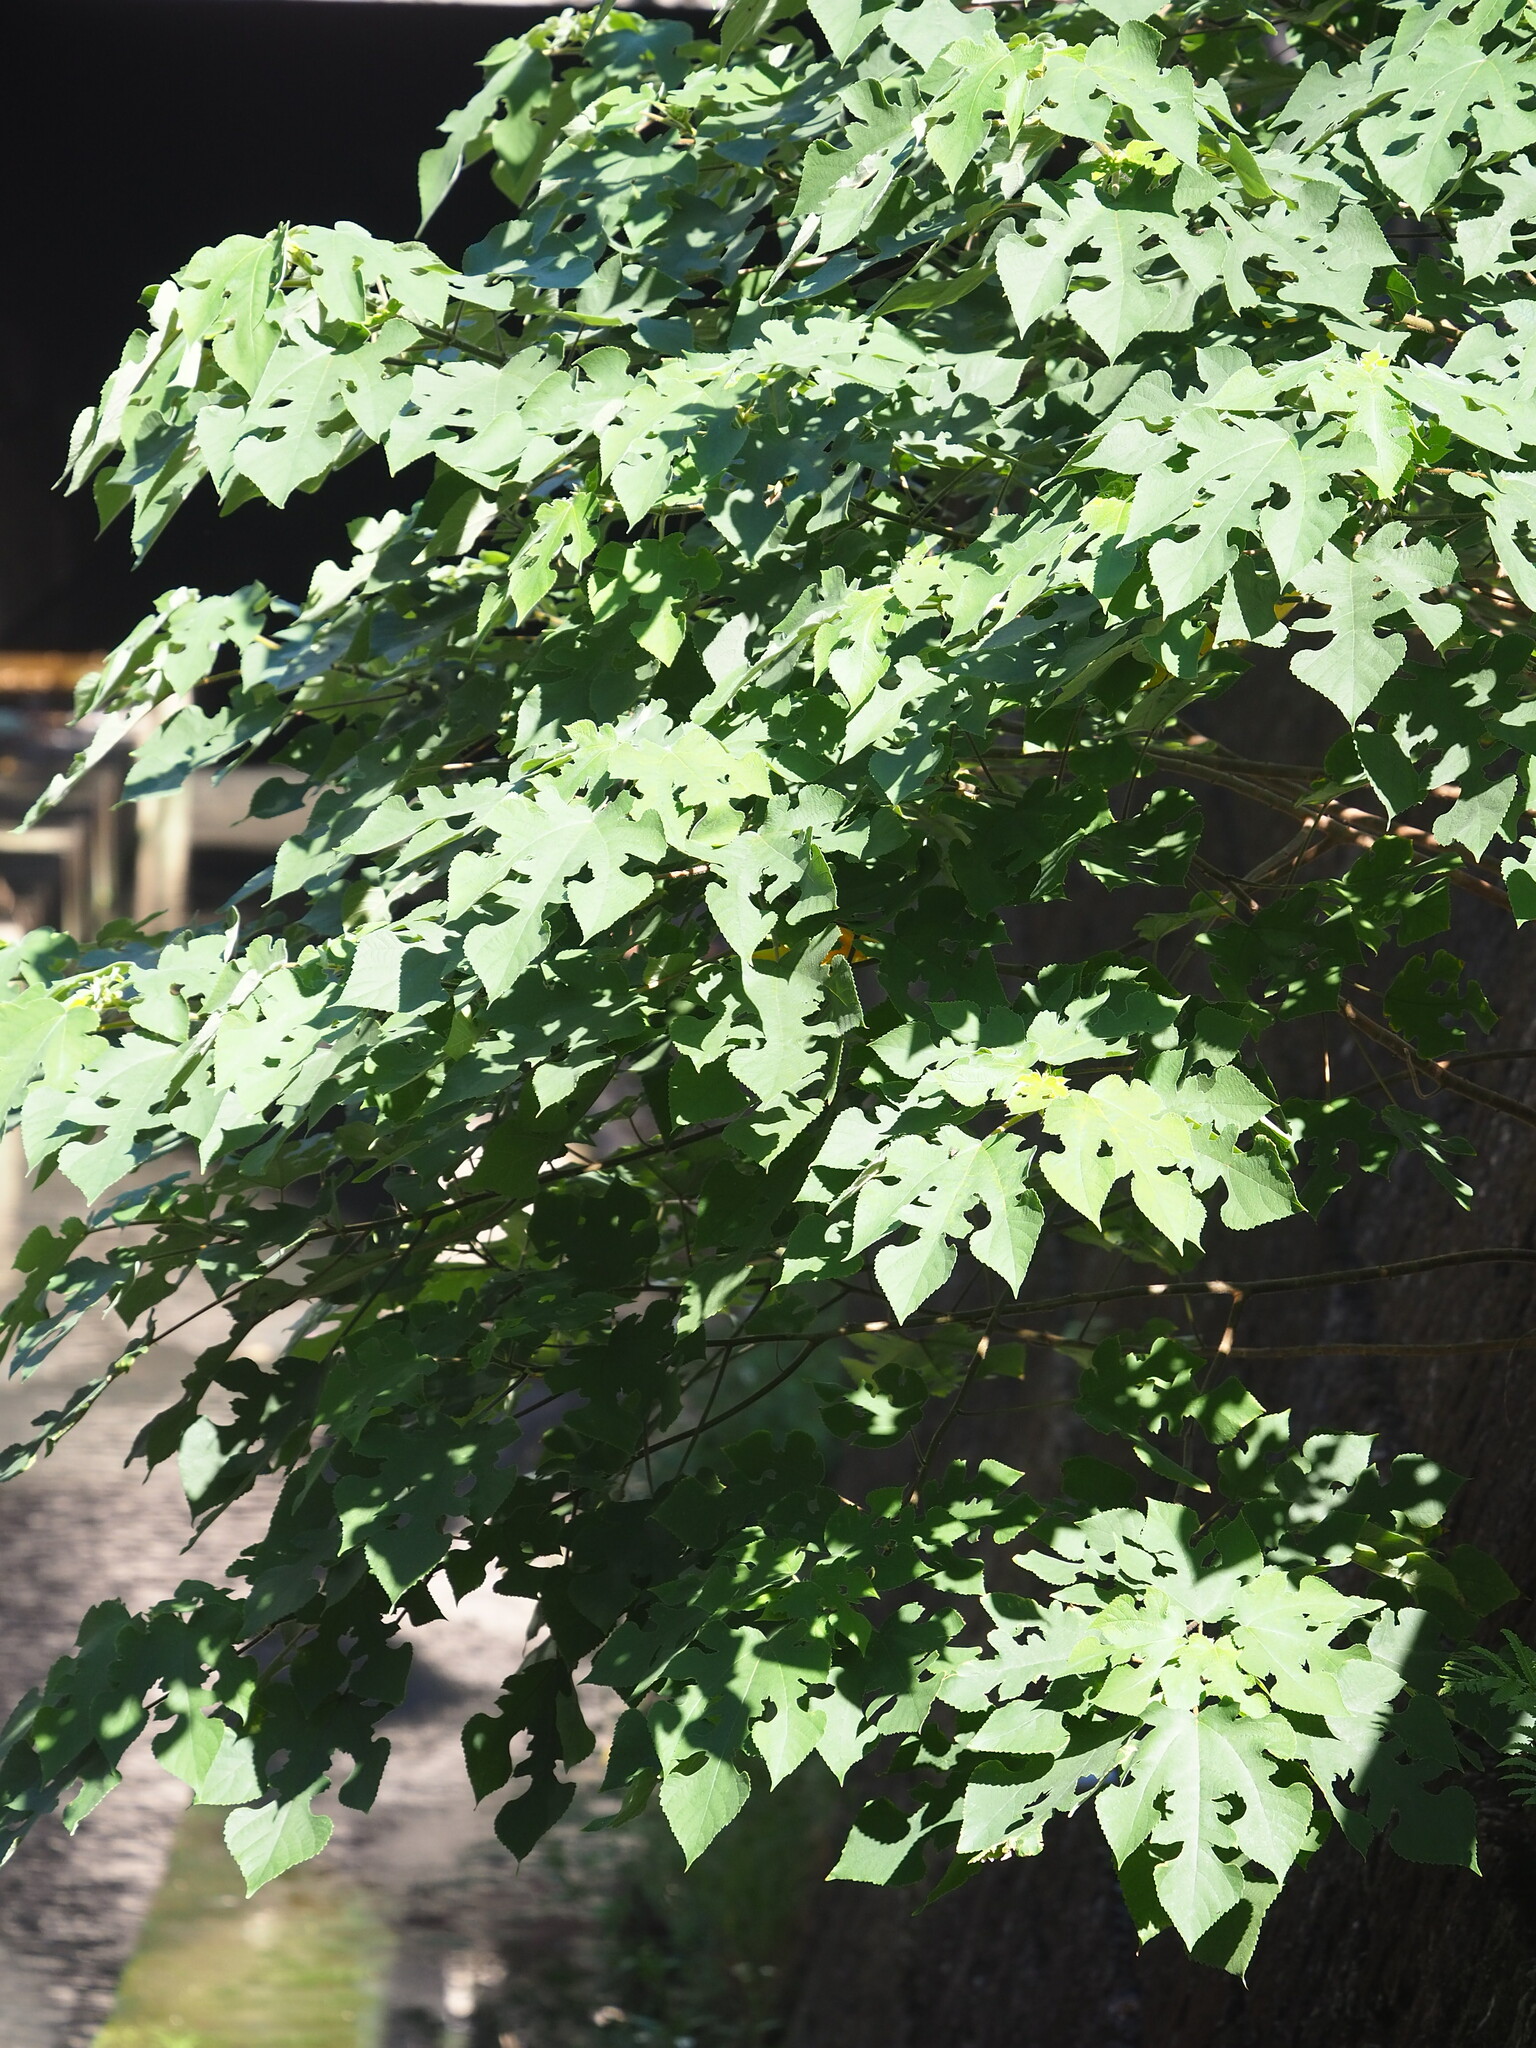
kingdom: Plantae
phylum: Tracheophyta
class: Magnoliopsida
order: Rosales
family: Moraceae
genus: Broussonetia
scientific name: Broussonetia papyrifera
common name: Paper mulberry
